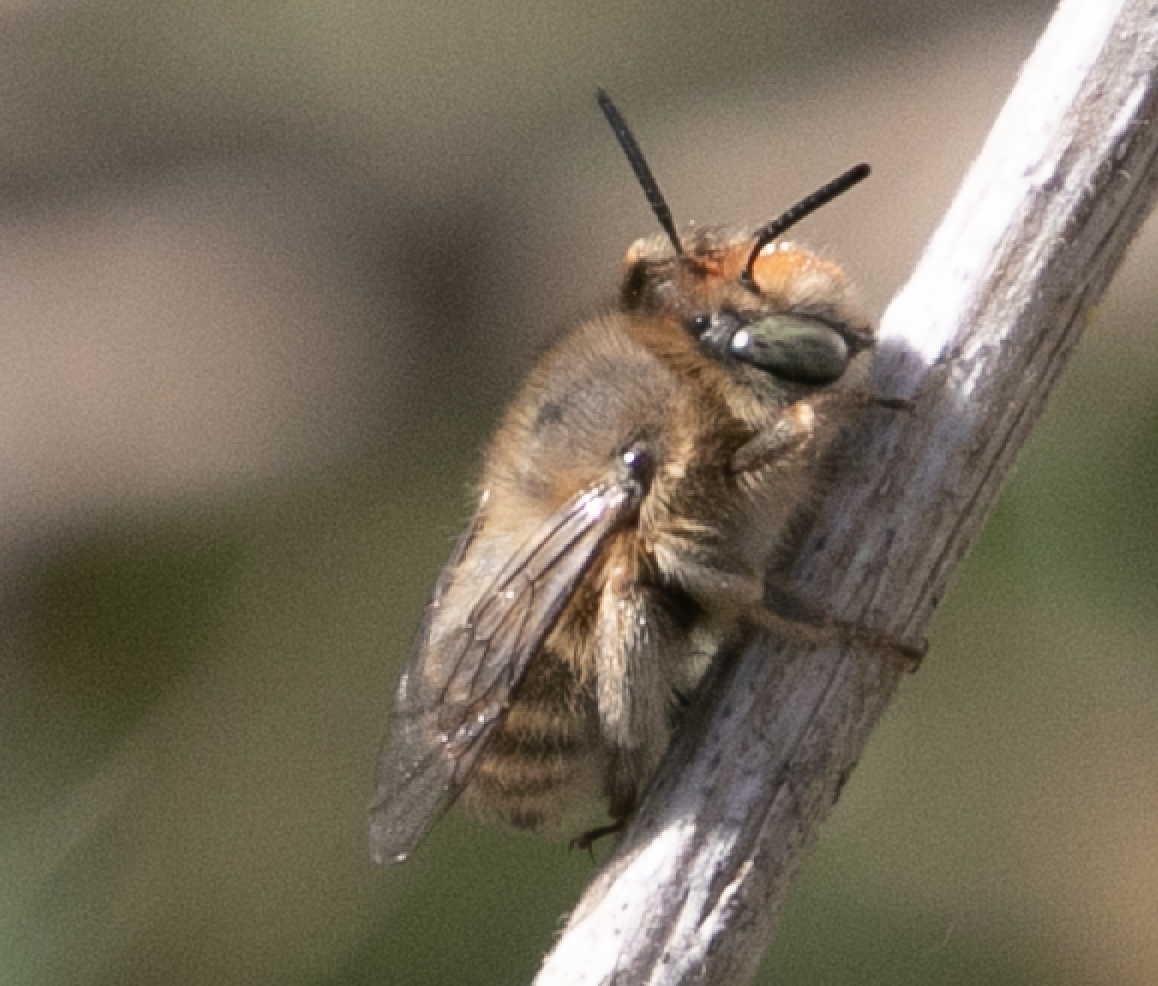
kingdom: Animalia
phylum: Arthropoda
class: Insecta
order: Hymenoptera
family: Apidae
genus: Anthophora
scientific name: Anthophora crinipes
